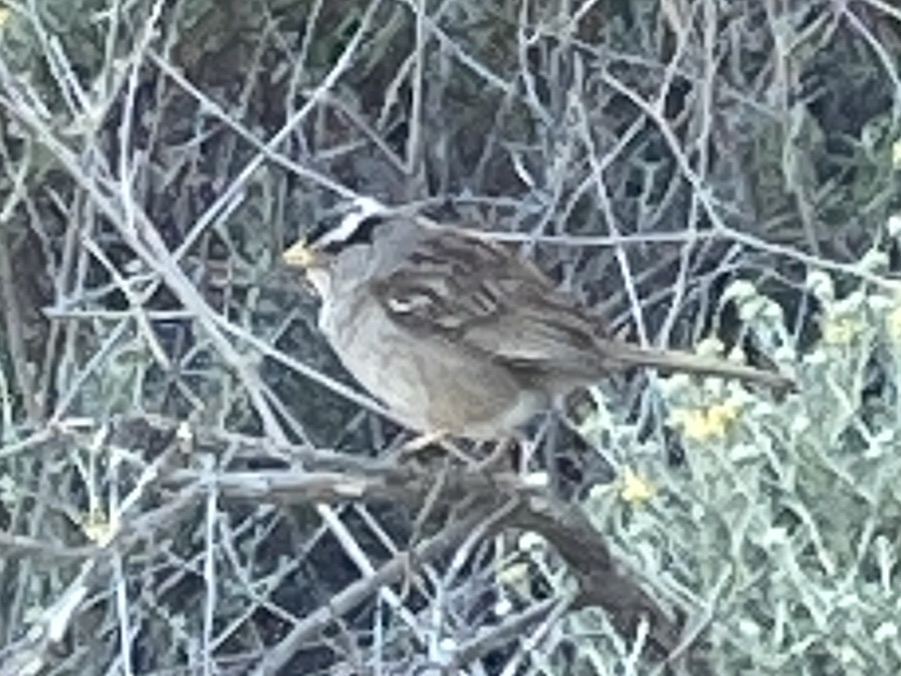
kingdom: Animalia
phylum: Chordata
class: Aves
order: Passeriformes
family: Passerellidae
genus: Zonotrichia
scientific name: Zonotrichia leucophrys
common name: White-crowned sparrow
